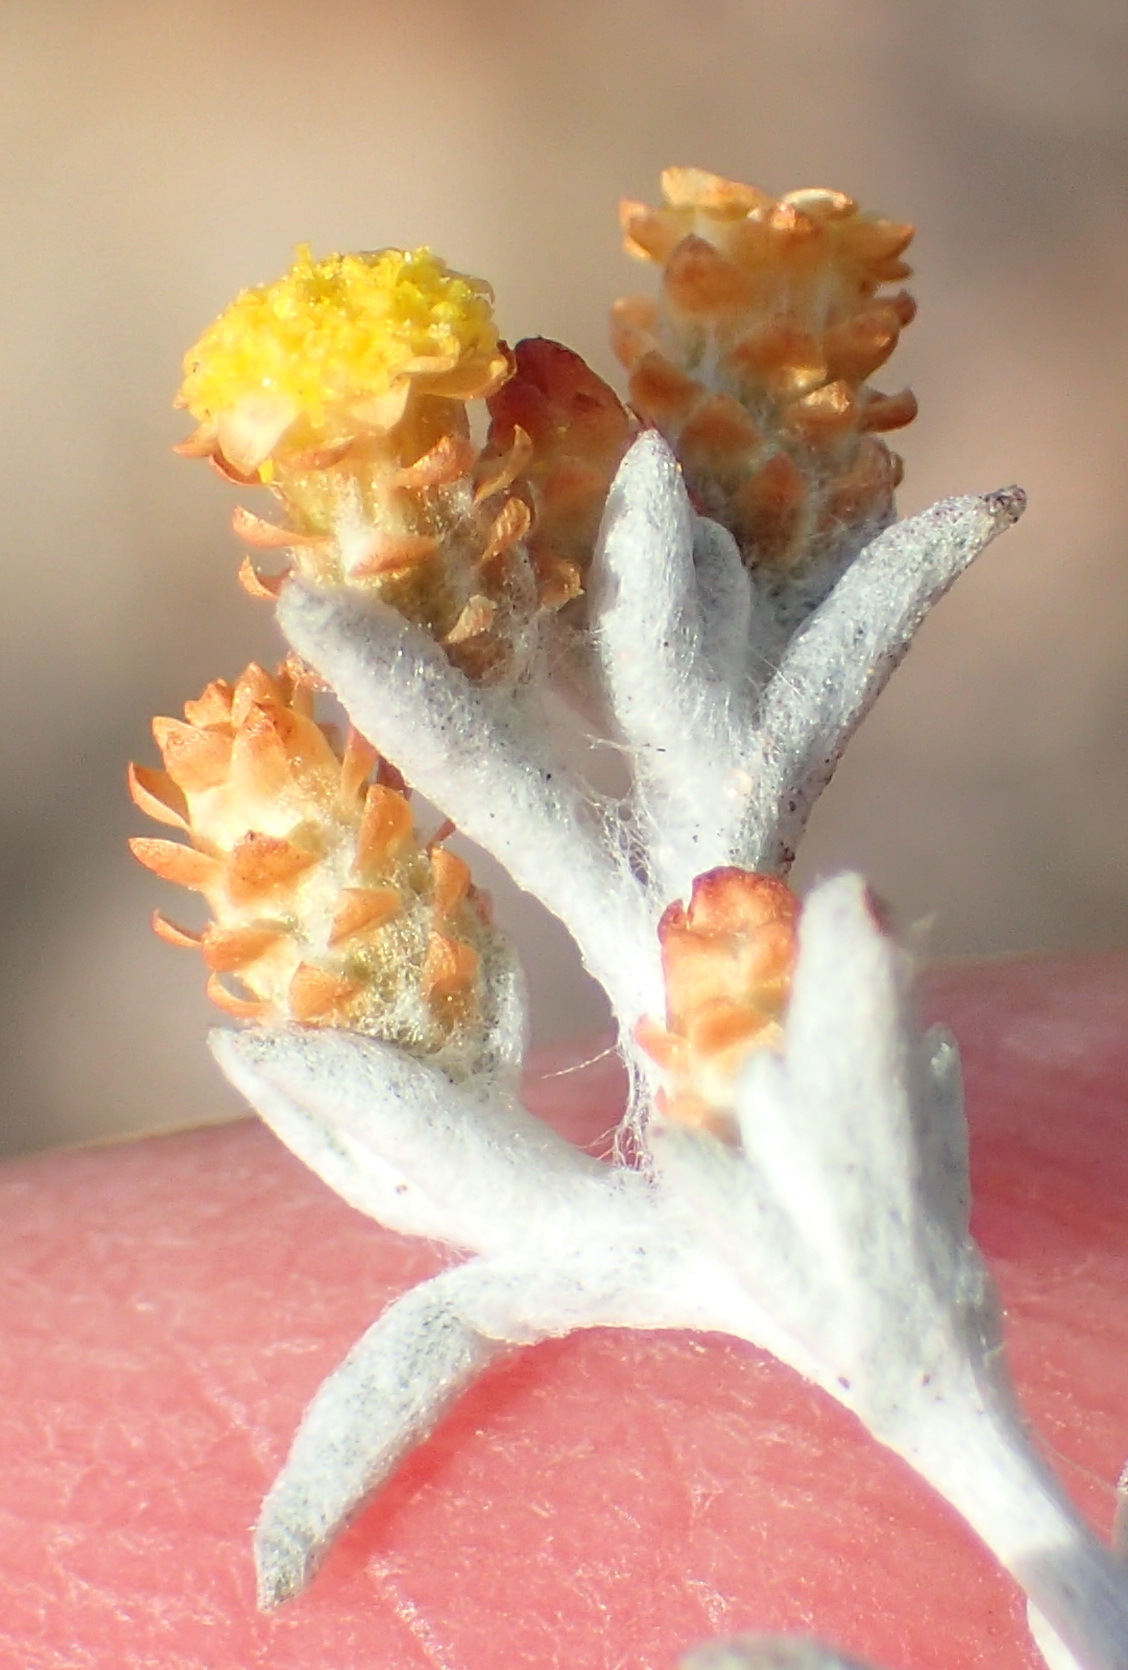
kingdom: Plantae
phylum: Tracheophyta
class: Magnoliopsida
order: Asterales
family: Asteraceae
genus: Helichrysum
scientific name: Helichrysum cylindriflorum
